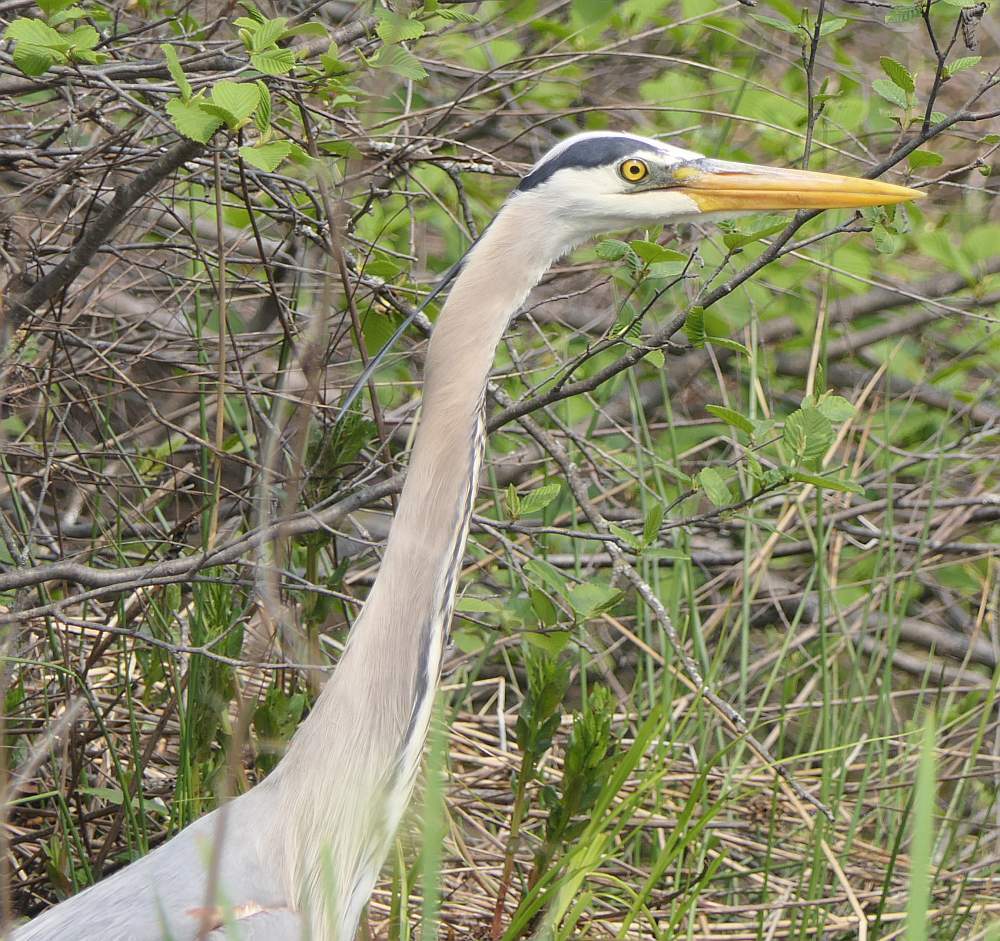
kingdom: Animalia
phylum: Chordata
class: Aves
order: Pelecaniformes
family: Ardeidae
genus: Ardea
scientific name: Ardea herodias
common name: Great blue heron
